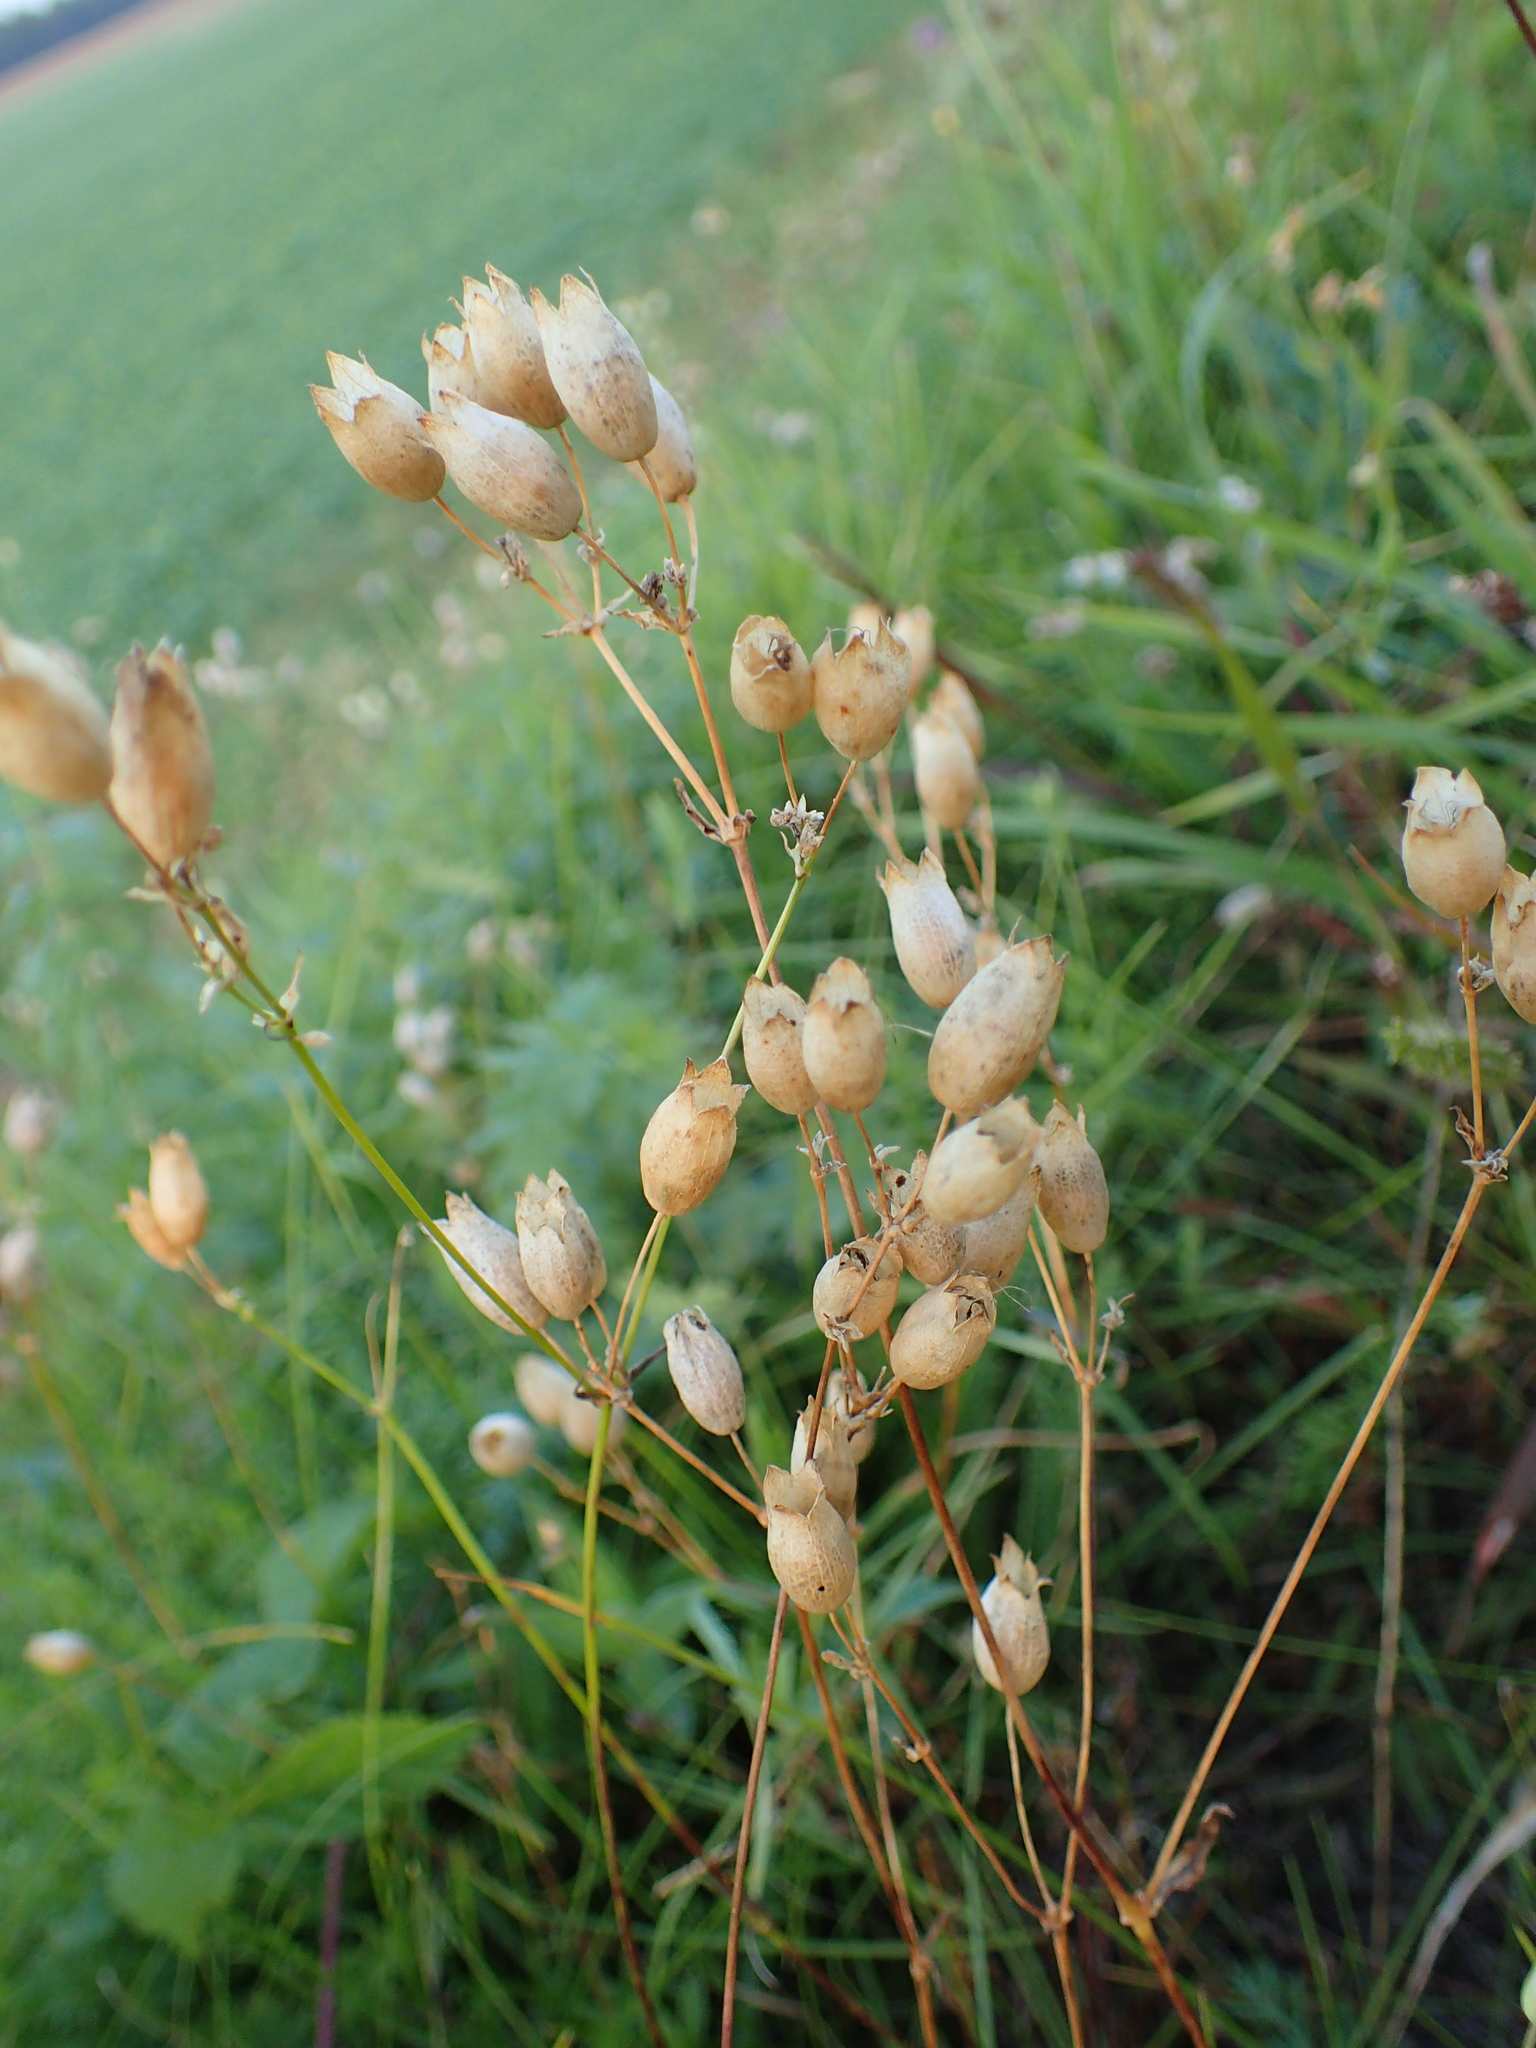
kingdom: Plantae
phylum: Tracheophyta
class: Magnoliopsida
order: Caryophyllales
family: Caryophyllaceae
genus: Silene
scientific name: Silene vulgaris
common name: Bladder campion
